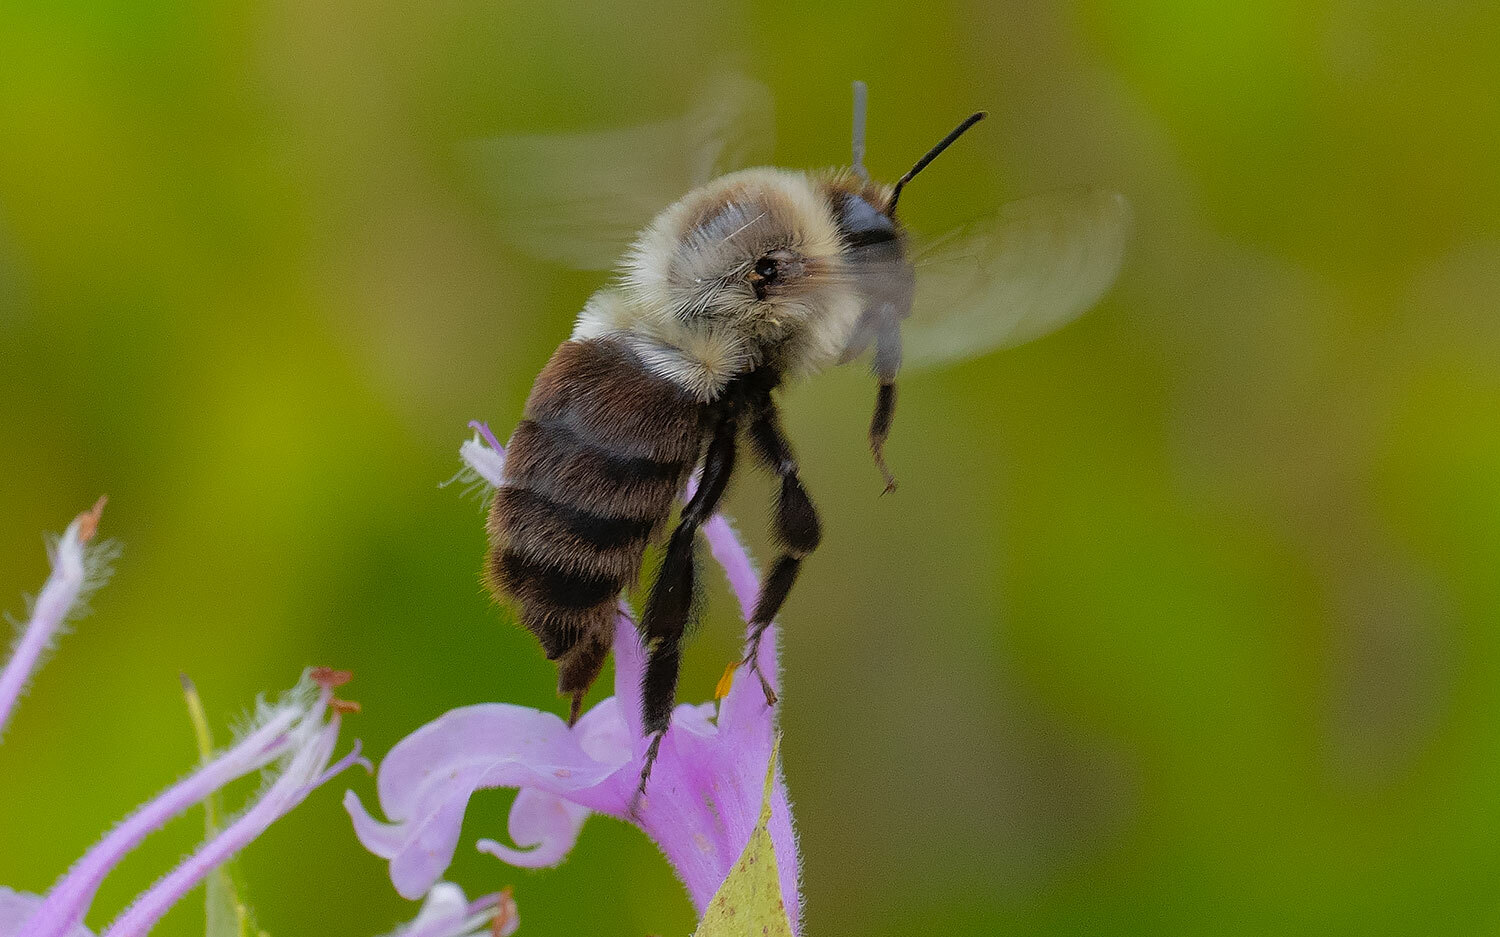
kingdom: Animalia
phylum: Arthropoda
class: Insecta
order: Hymenoptera
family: Apidae
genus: Bombus
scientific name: Bombus impatiens
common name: Common eastern bumble bee
